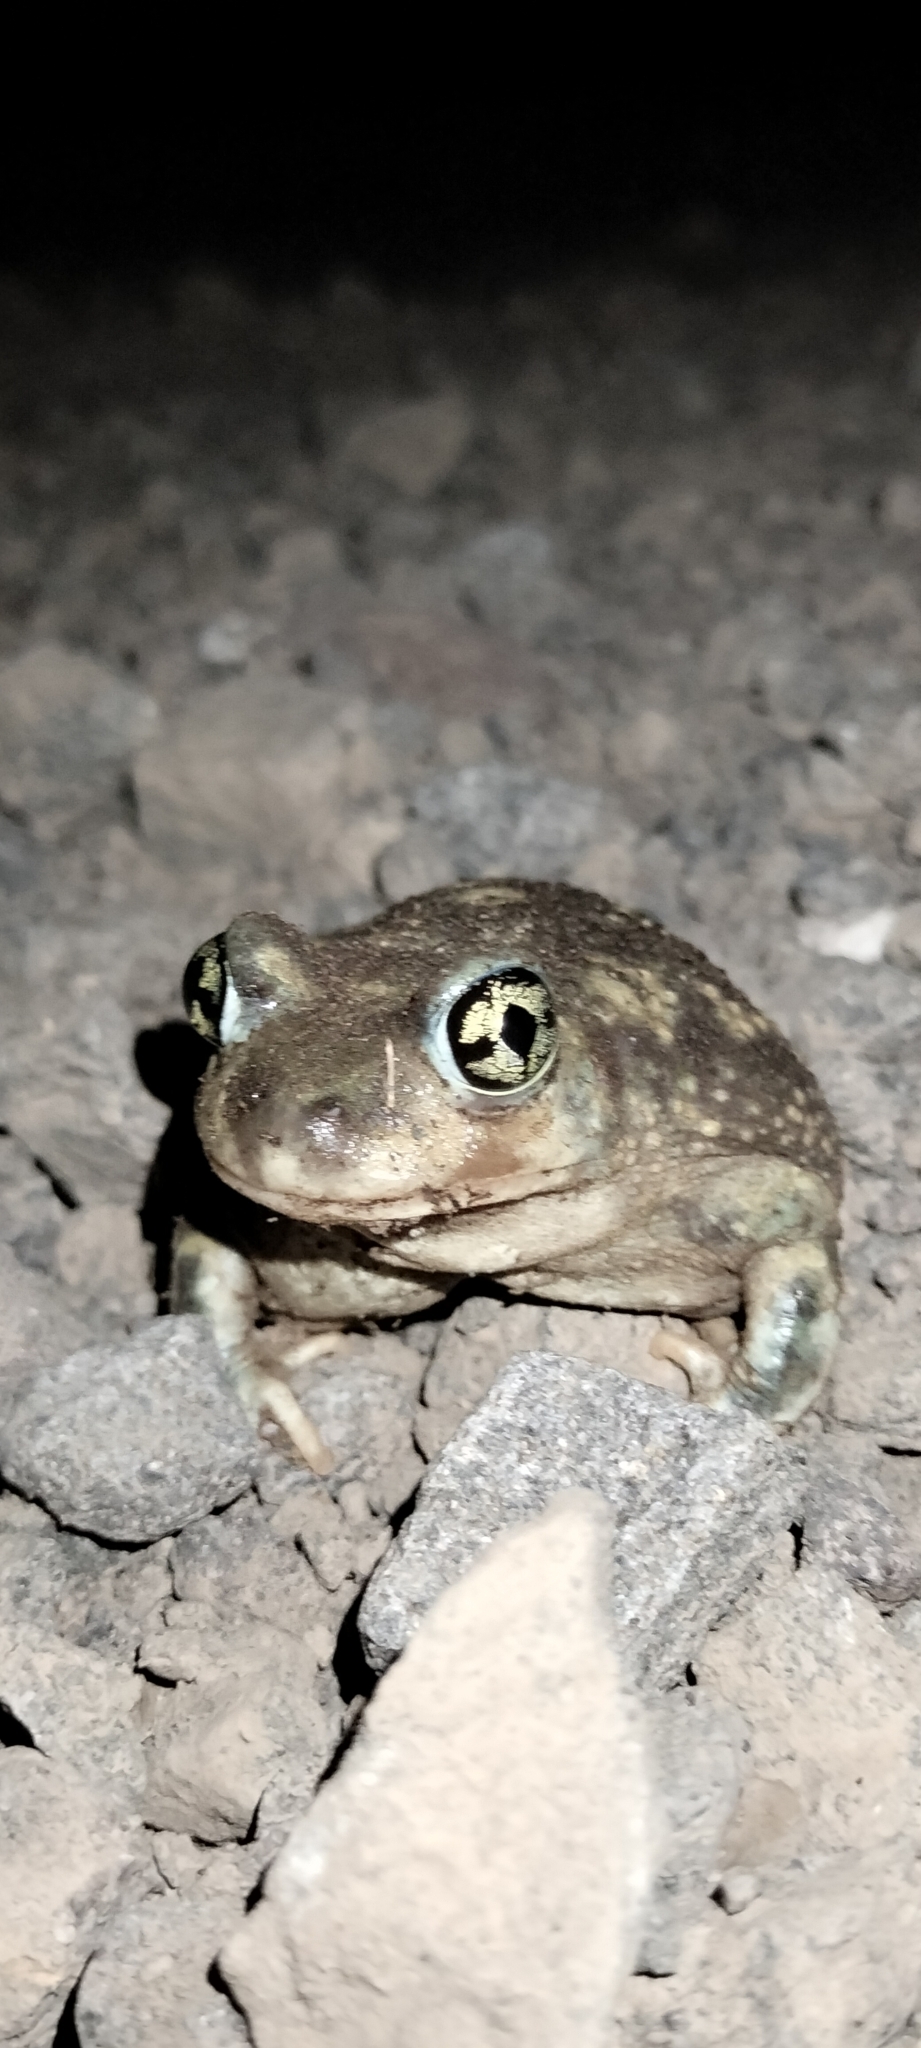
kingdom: Animalia
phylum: Chordata
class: Amphibia
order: Anura
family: Scaphiopodidae
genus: Scaphiopus
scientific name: Scaphiopus couchii
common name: Couch's spadefoot toad
